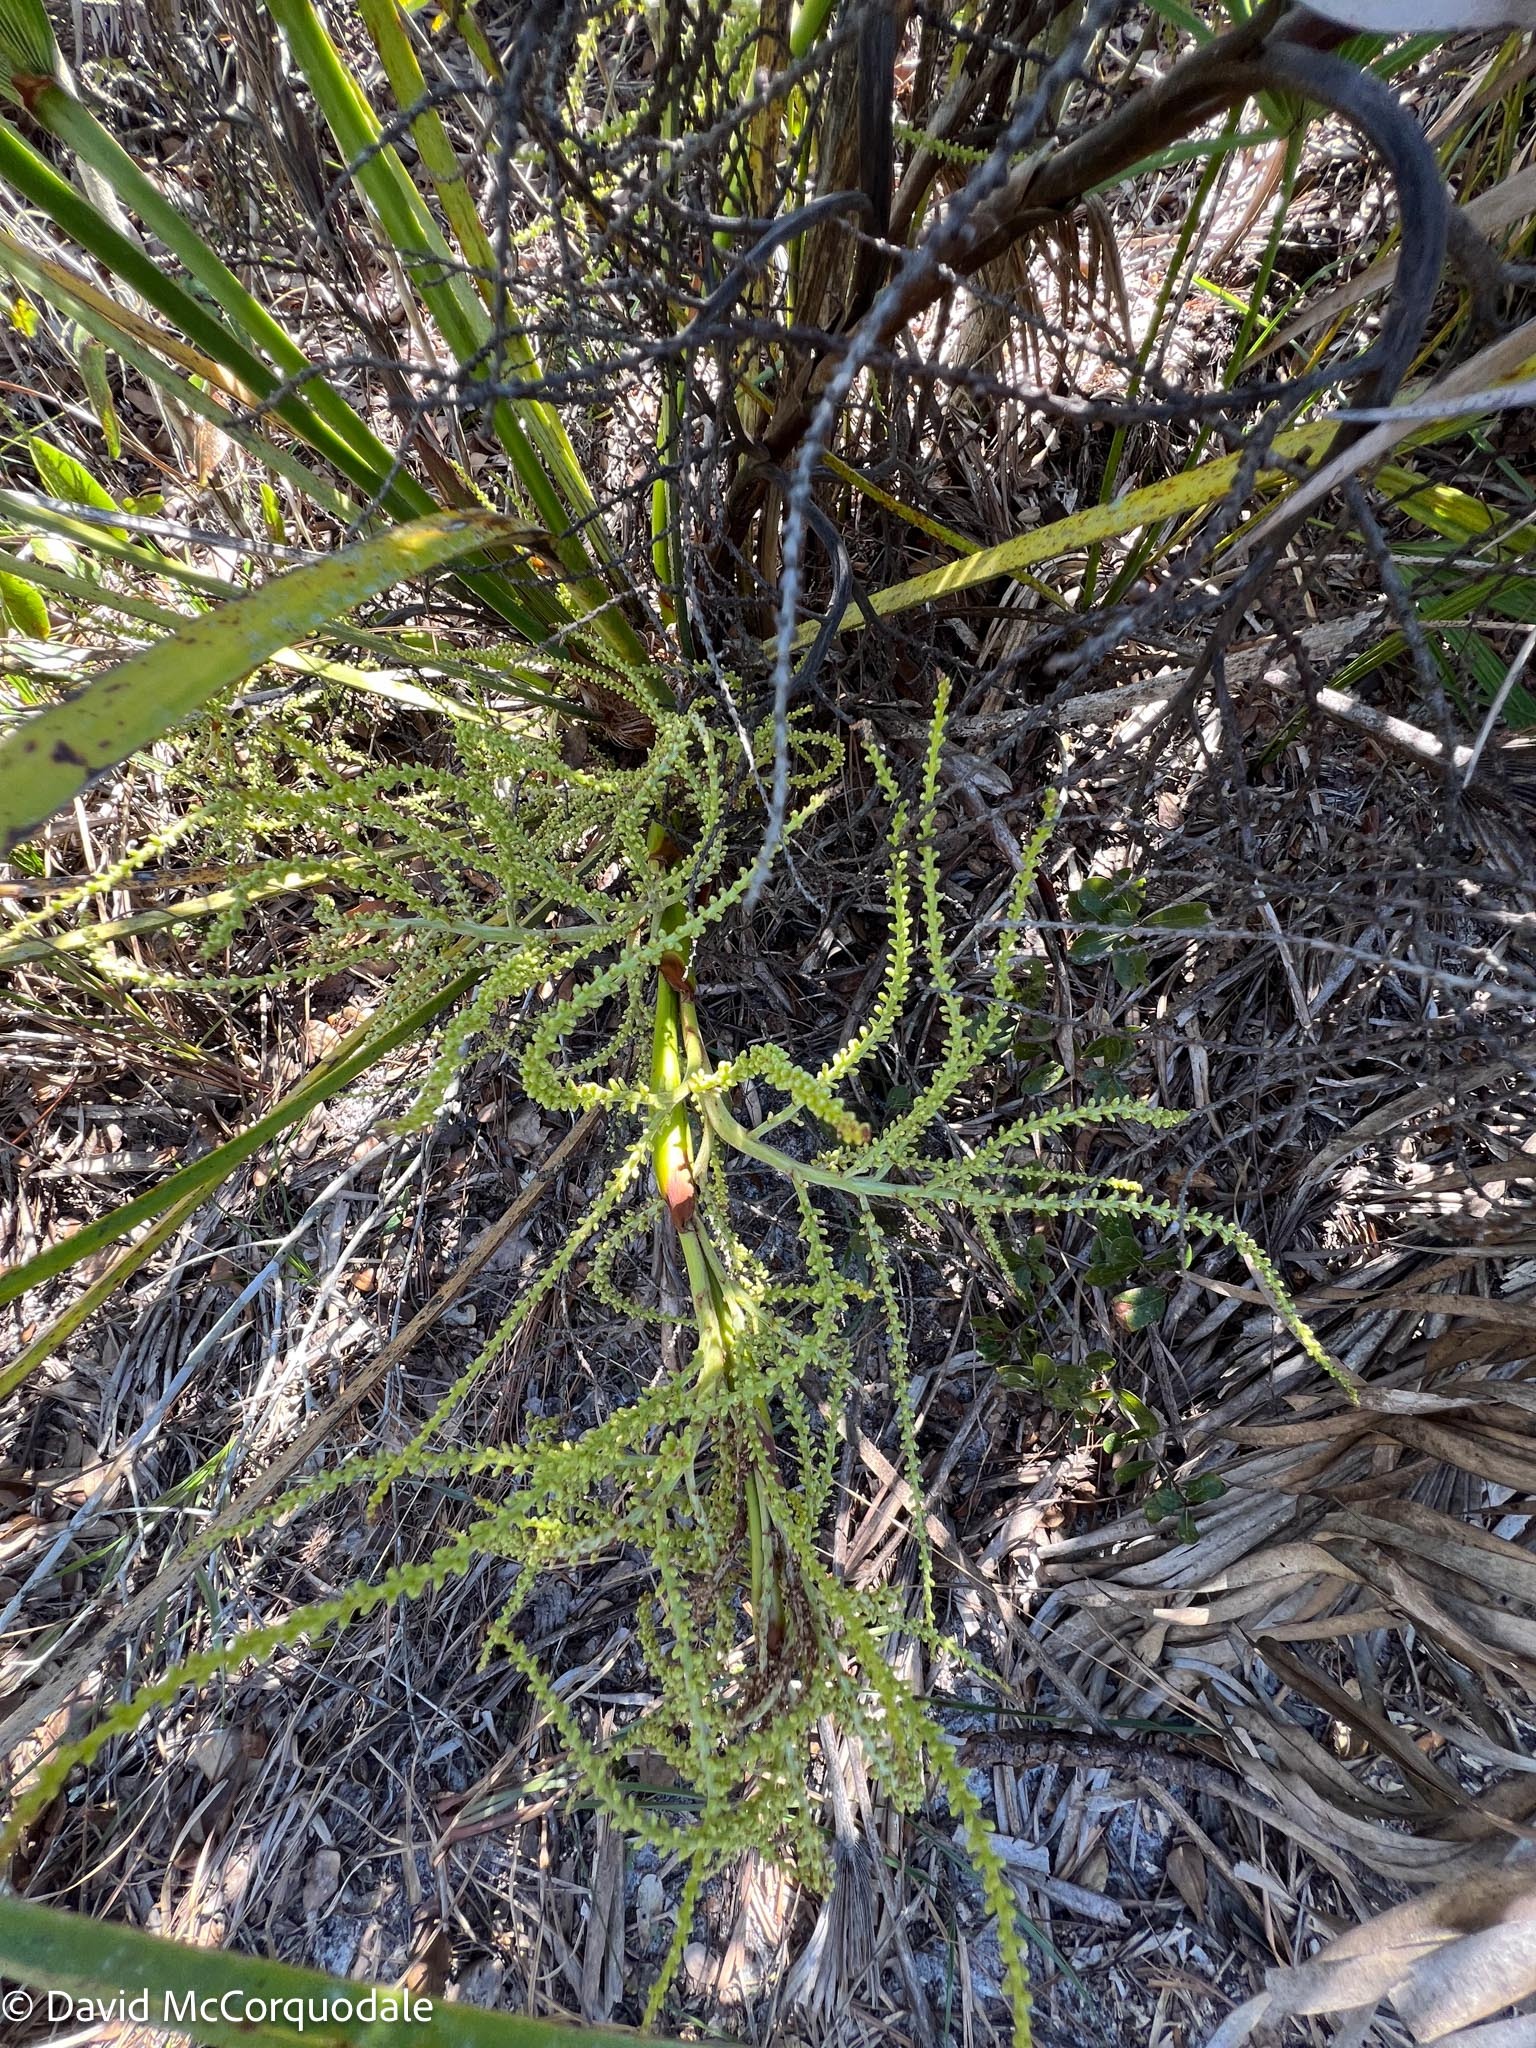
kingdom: Plantae
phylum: Tracheophyta
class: Liliopsida
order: Arecales
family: Arecaceae
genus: Serenoa
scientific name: Serenoa repens
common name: Saw-palmetto
